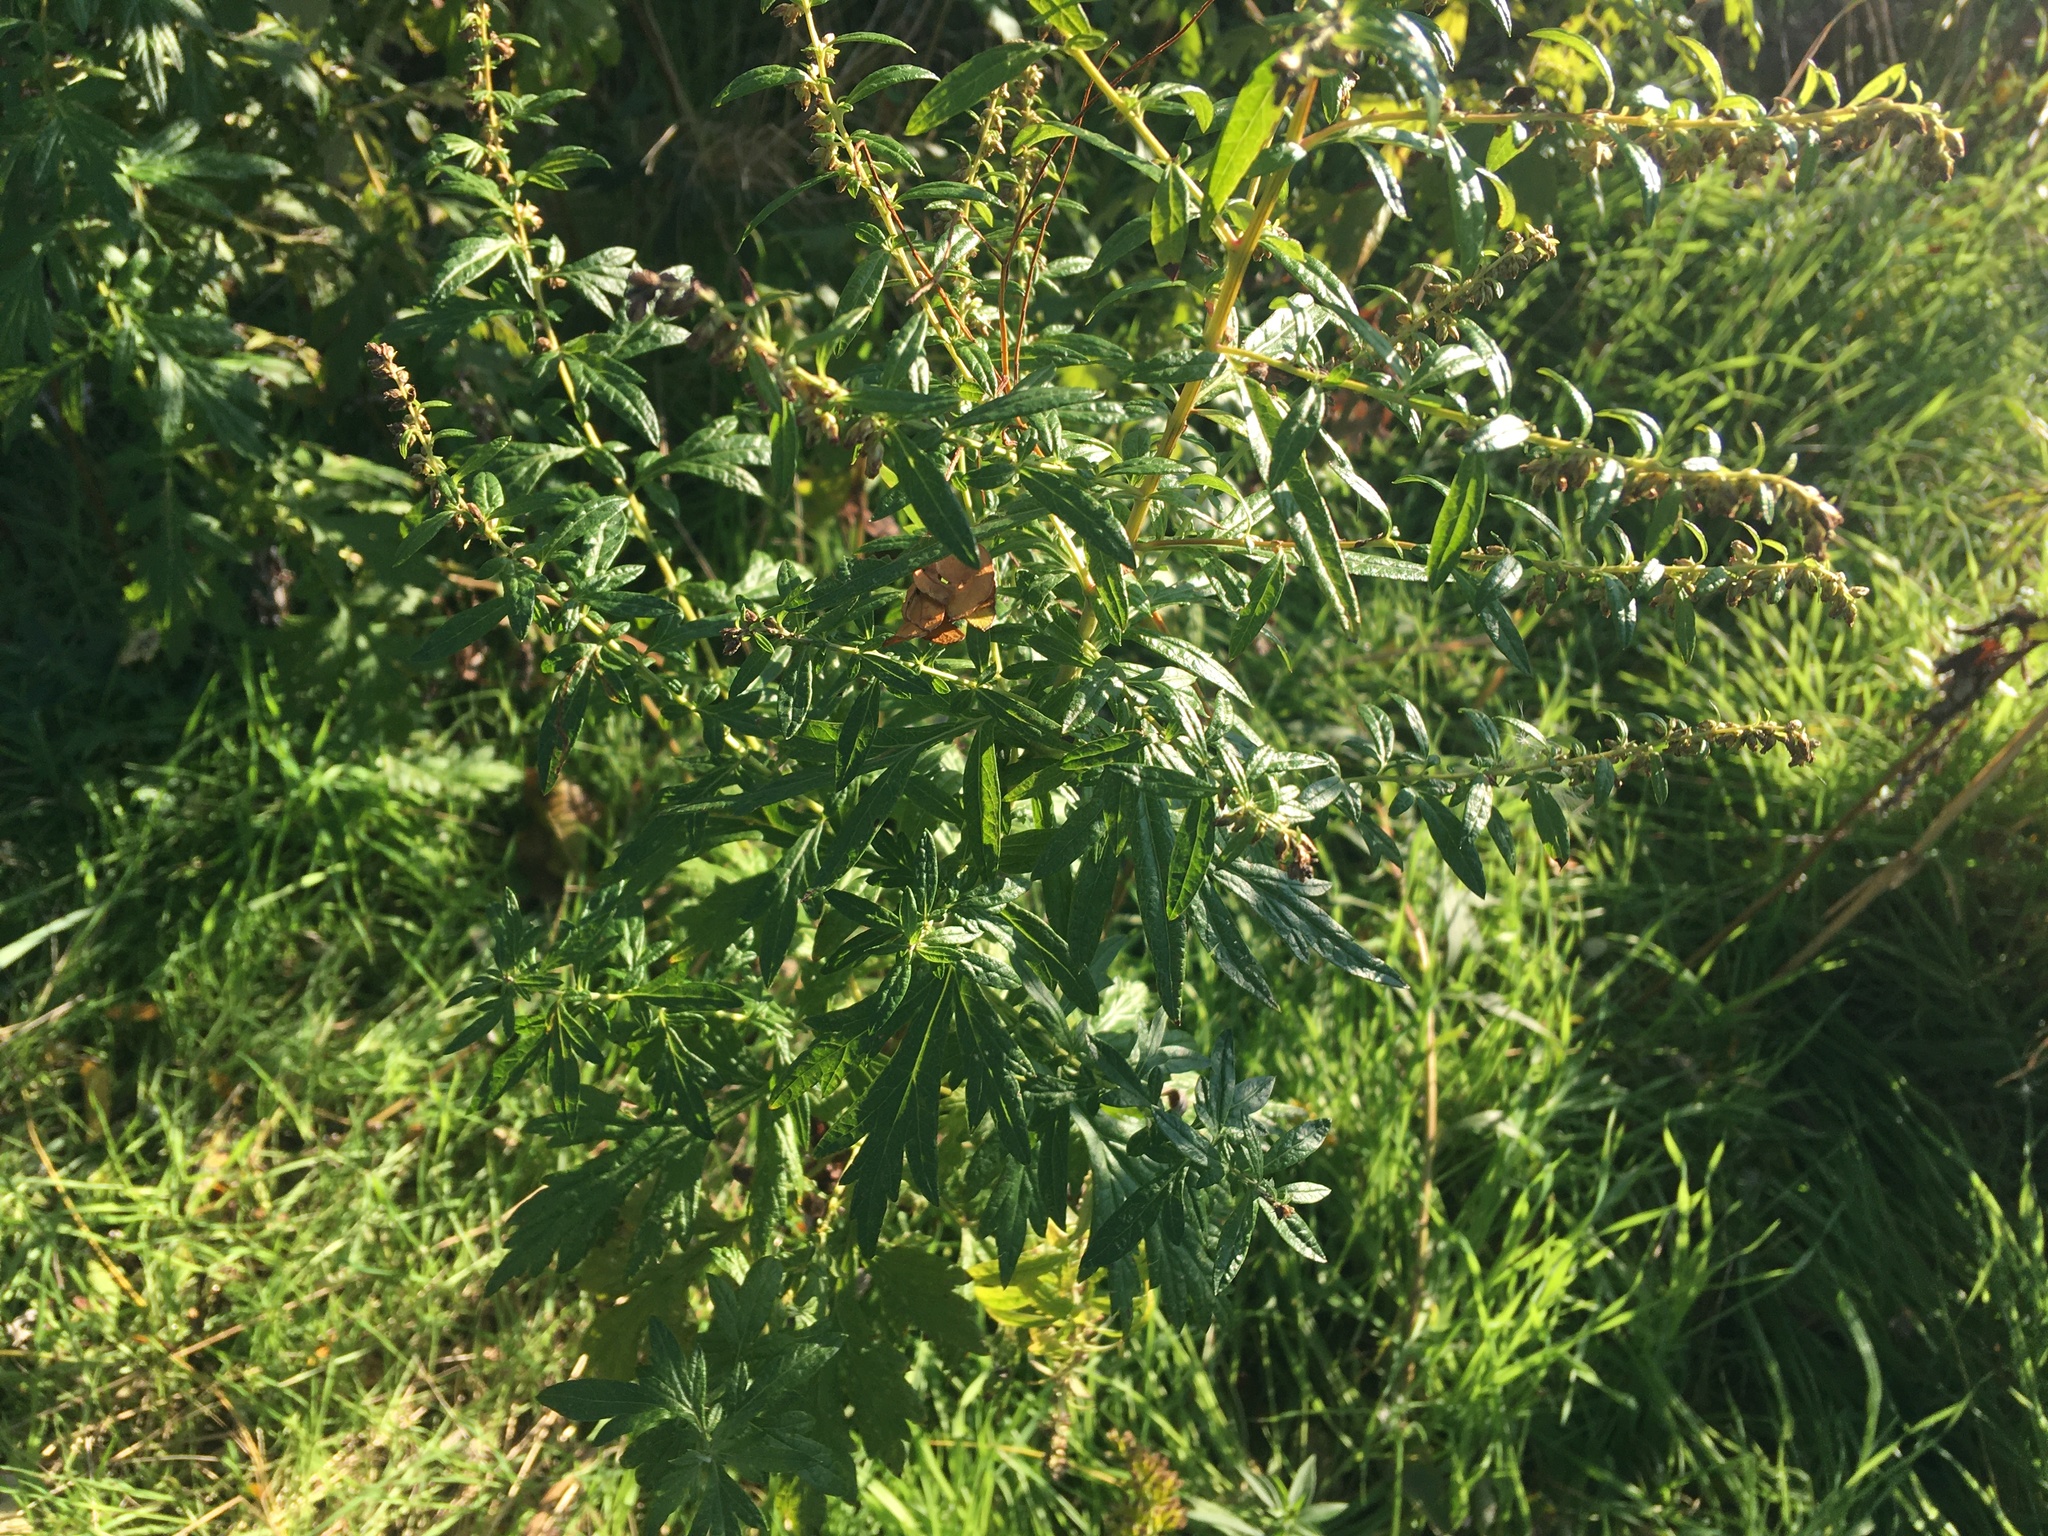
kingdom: Plantae
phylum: Tracheophyta
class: Magnoliopsida
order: Asterales
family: Asteraceae
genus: Artemisia
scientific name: Artemisia vulgaris
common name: Mugwort
